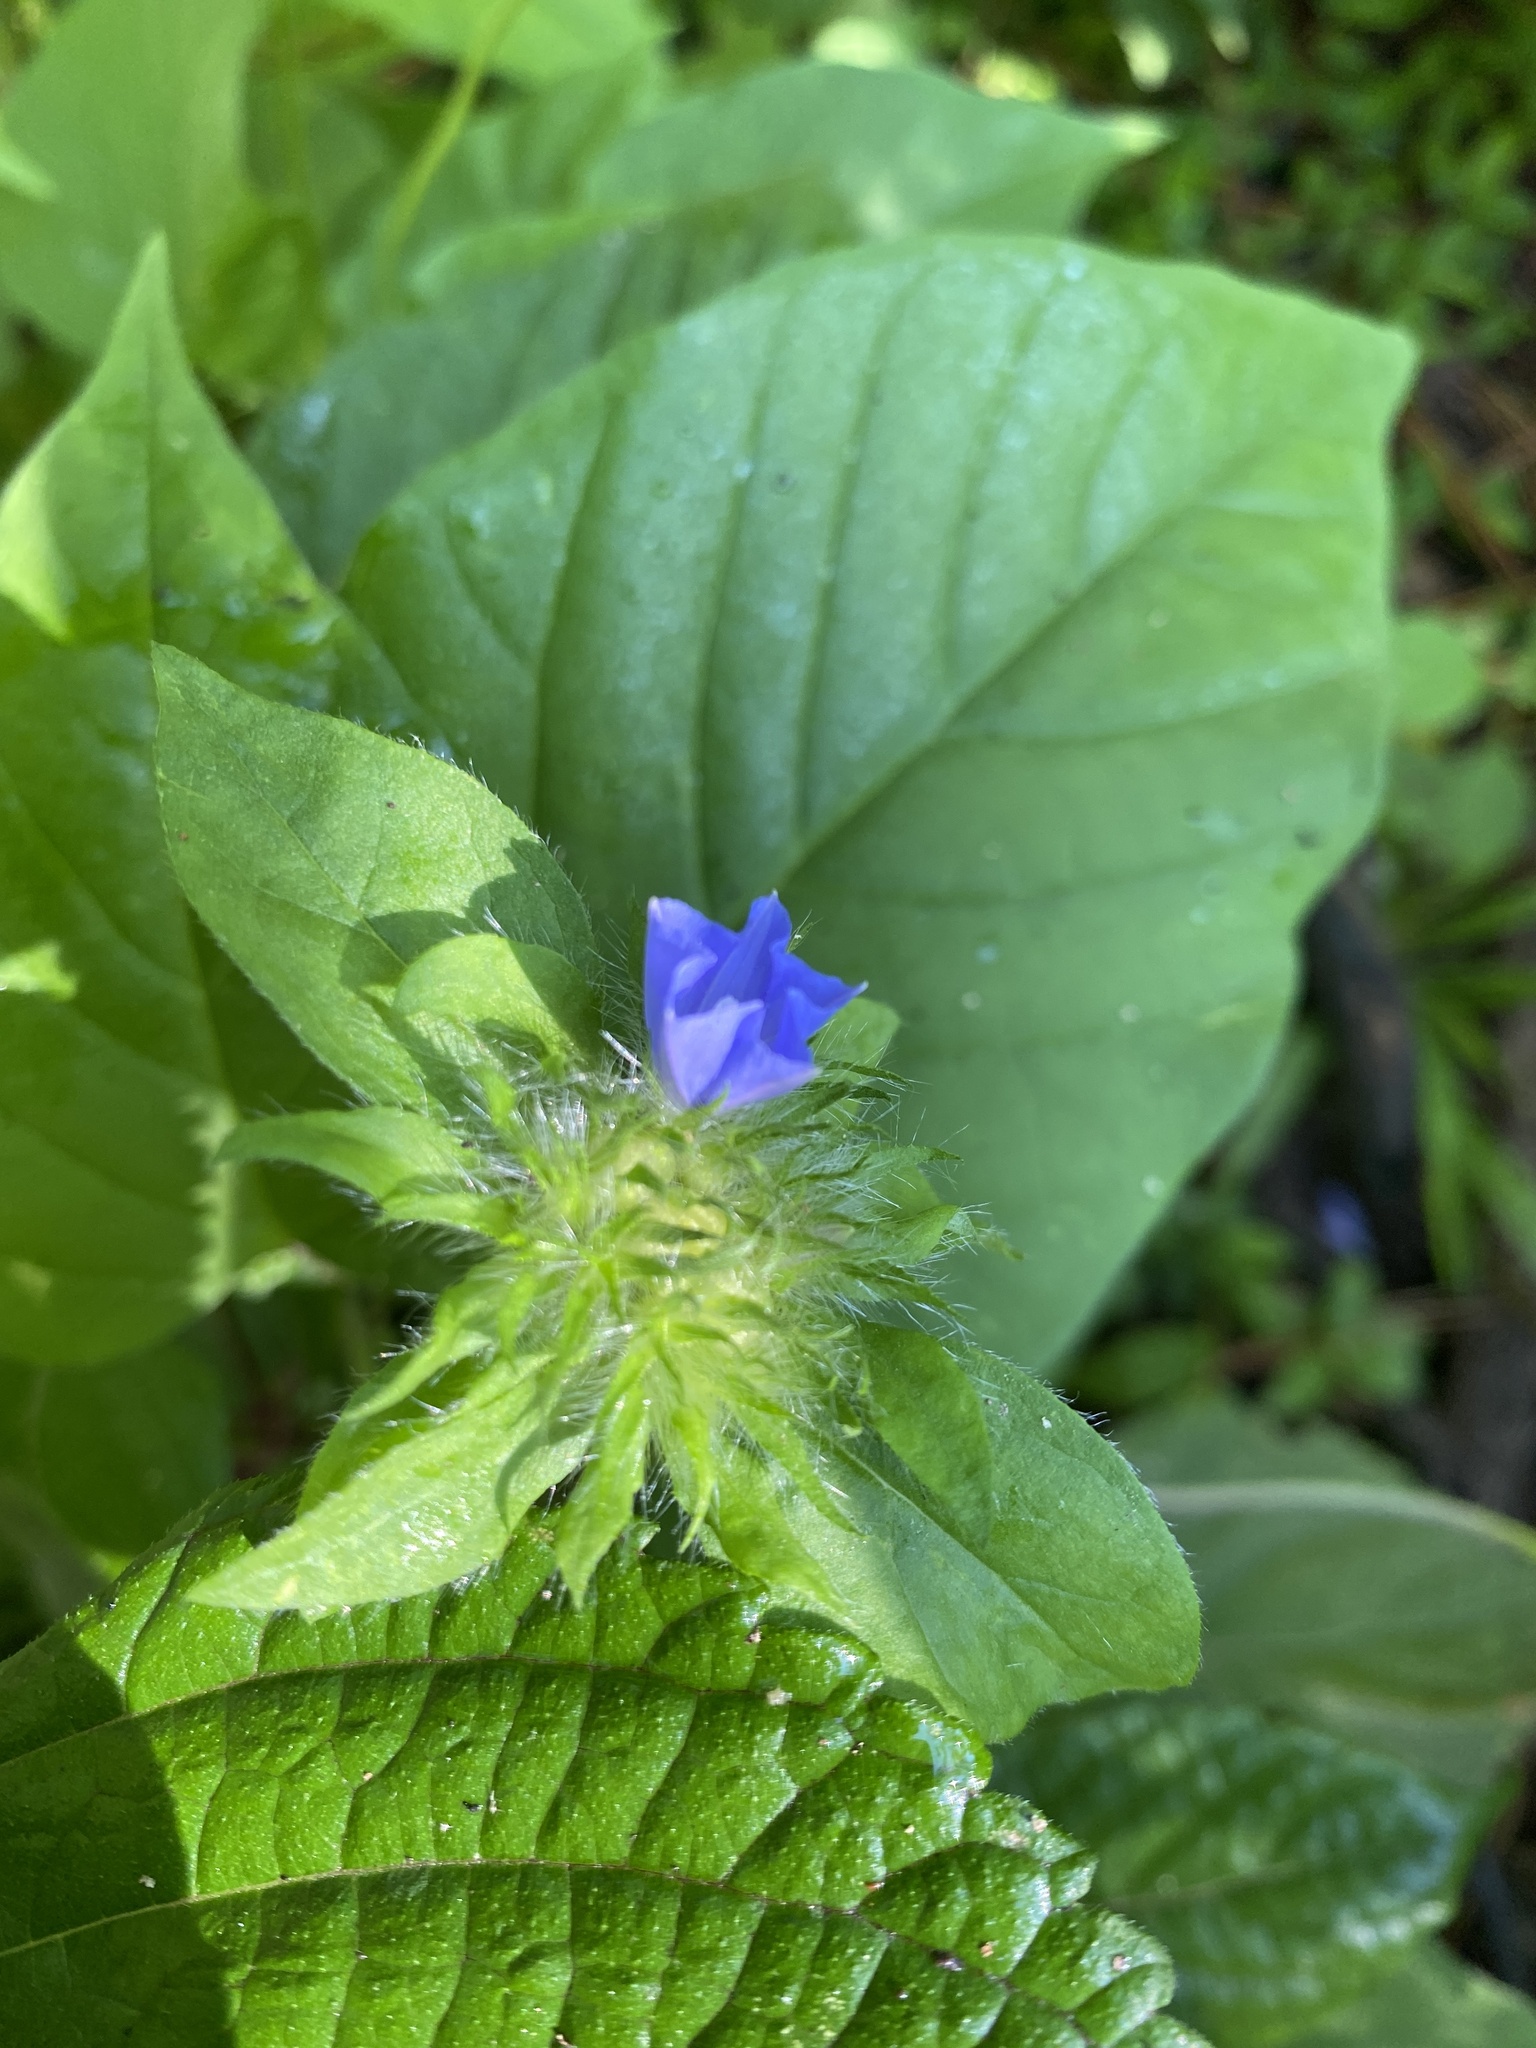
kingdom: Plantae
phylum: Tracheophyta
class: Magnoliopsida
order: Solanales
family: Convolvulaceae
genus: Jacquemontia
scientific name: Jacquemontia tamnifolia
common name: Hairy clustervine
